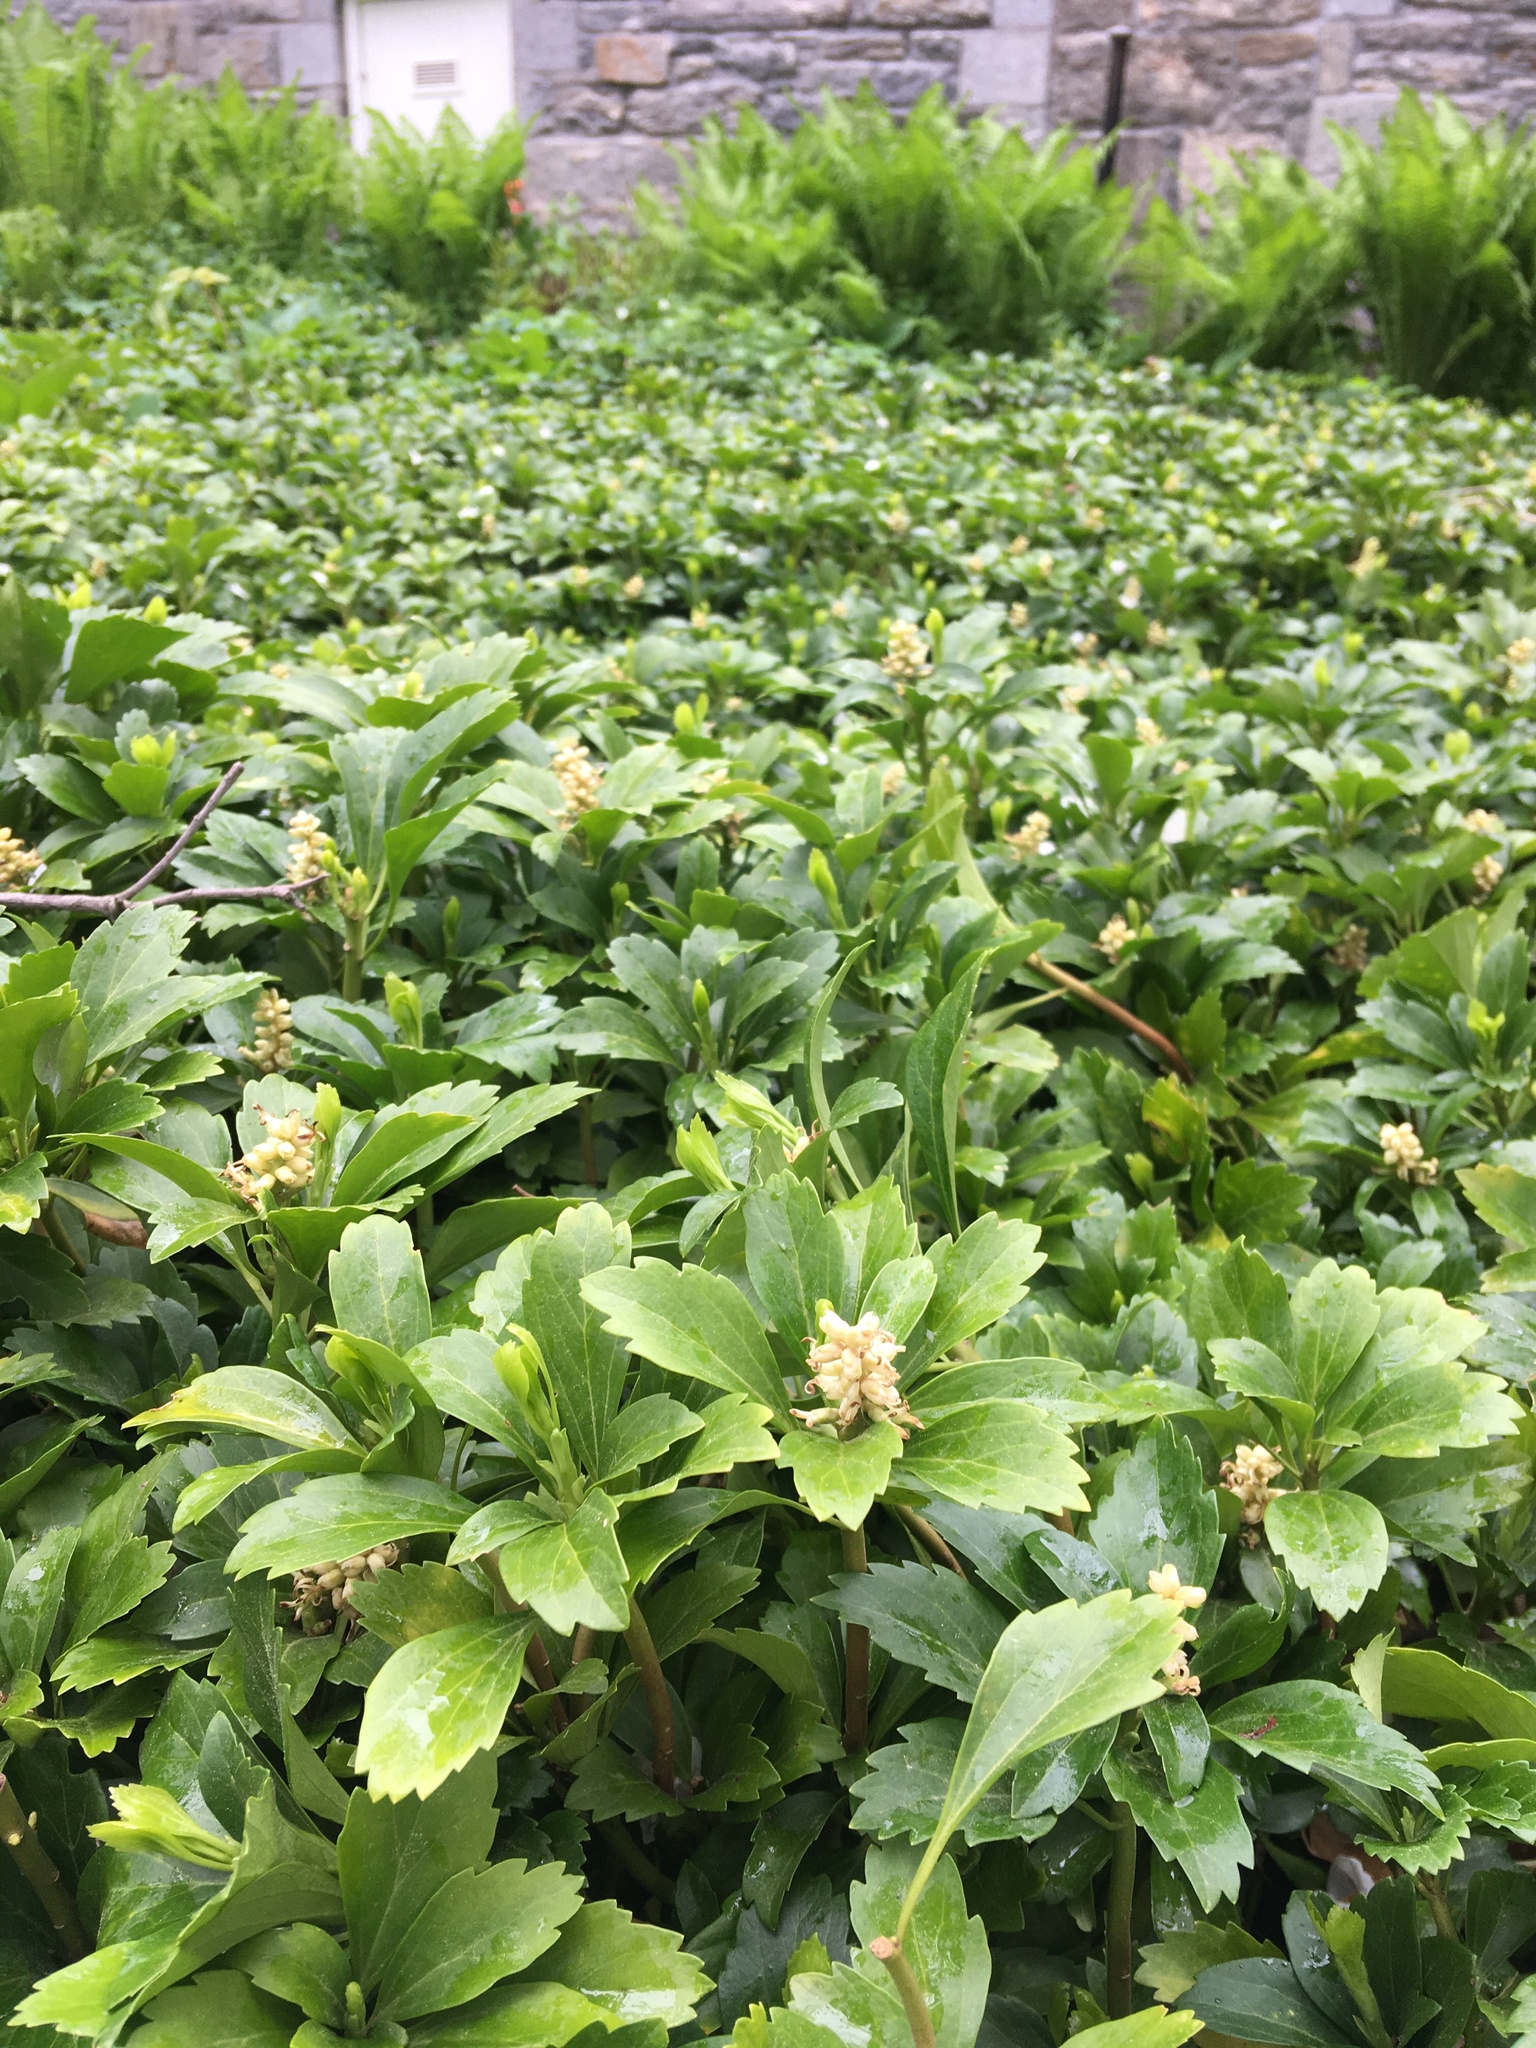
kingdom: Plantae
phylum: Tracheophyta
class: Magnoliopsida
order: Buxales
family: Buxaceae
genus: Pachysandra
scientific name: Pachysandra terminalis
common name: Japanese pachysandra
